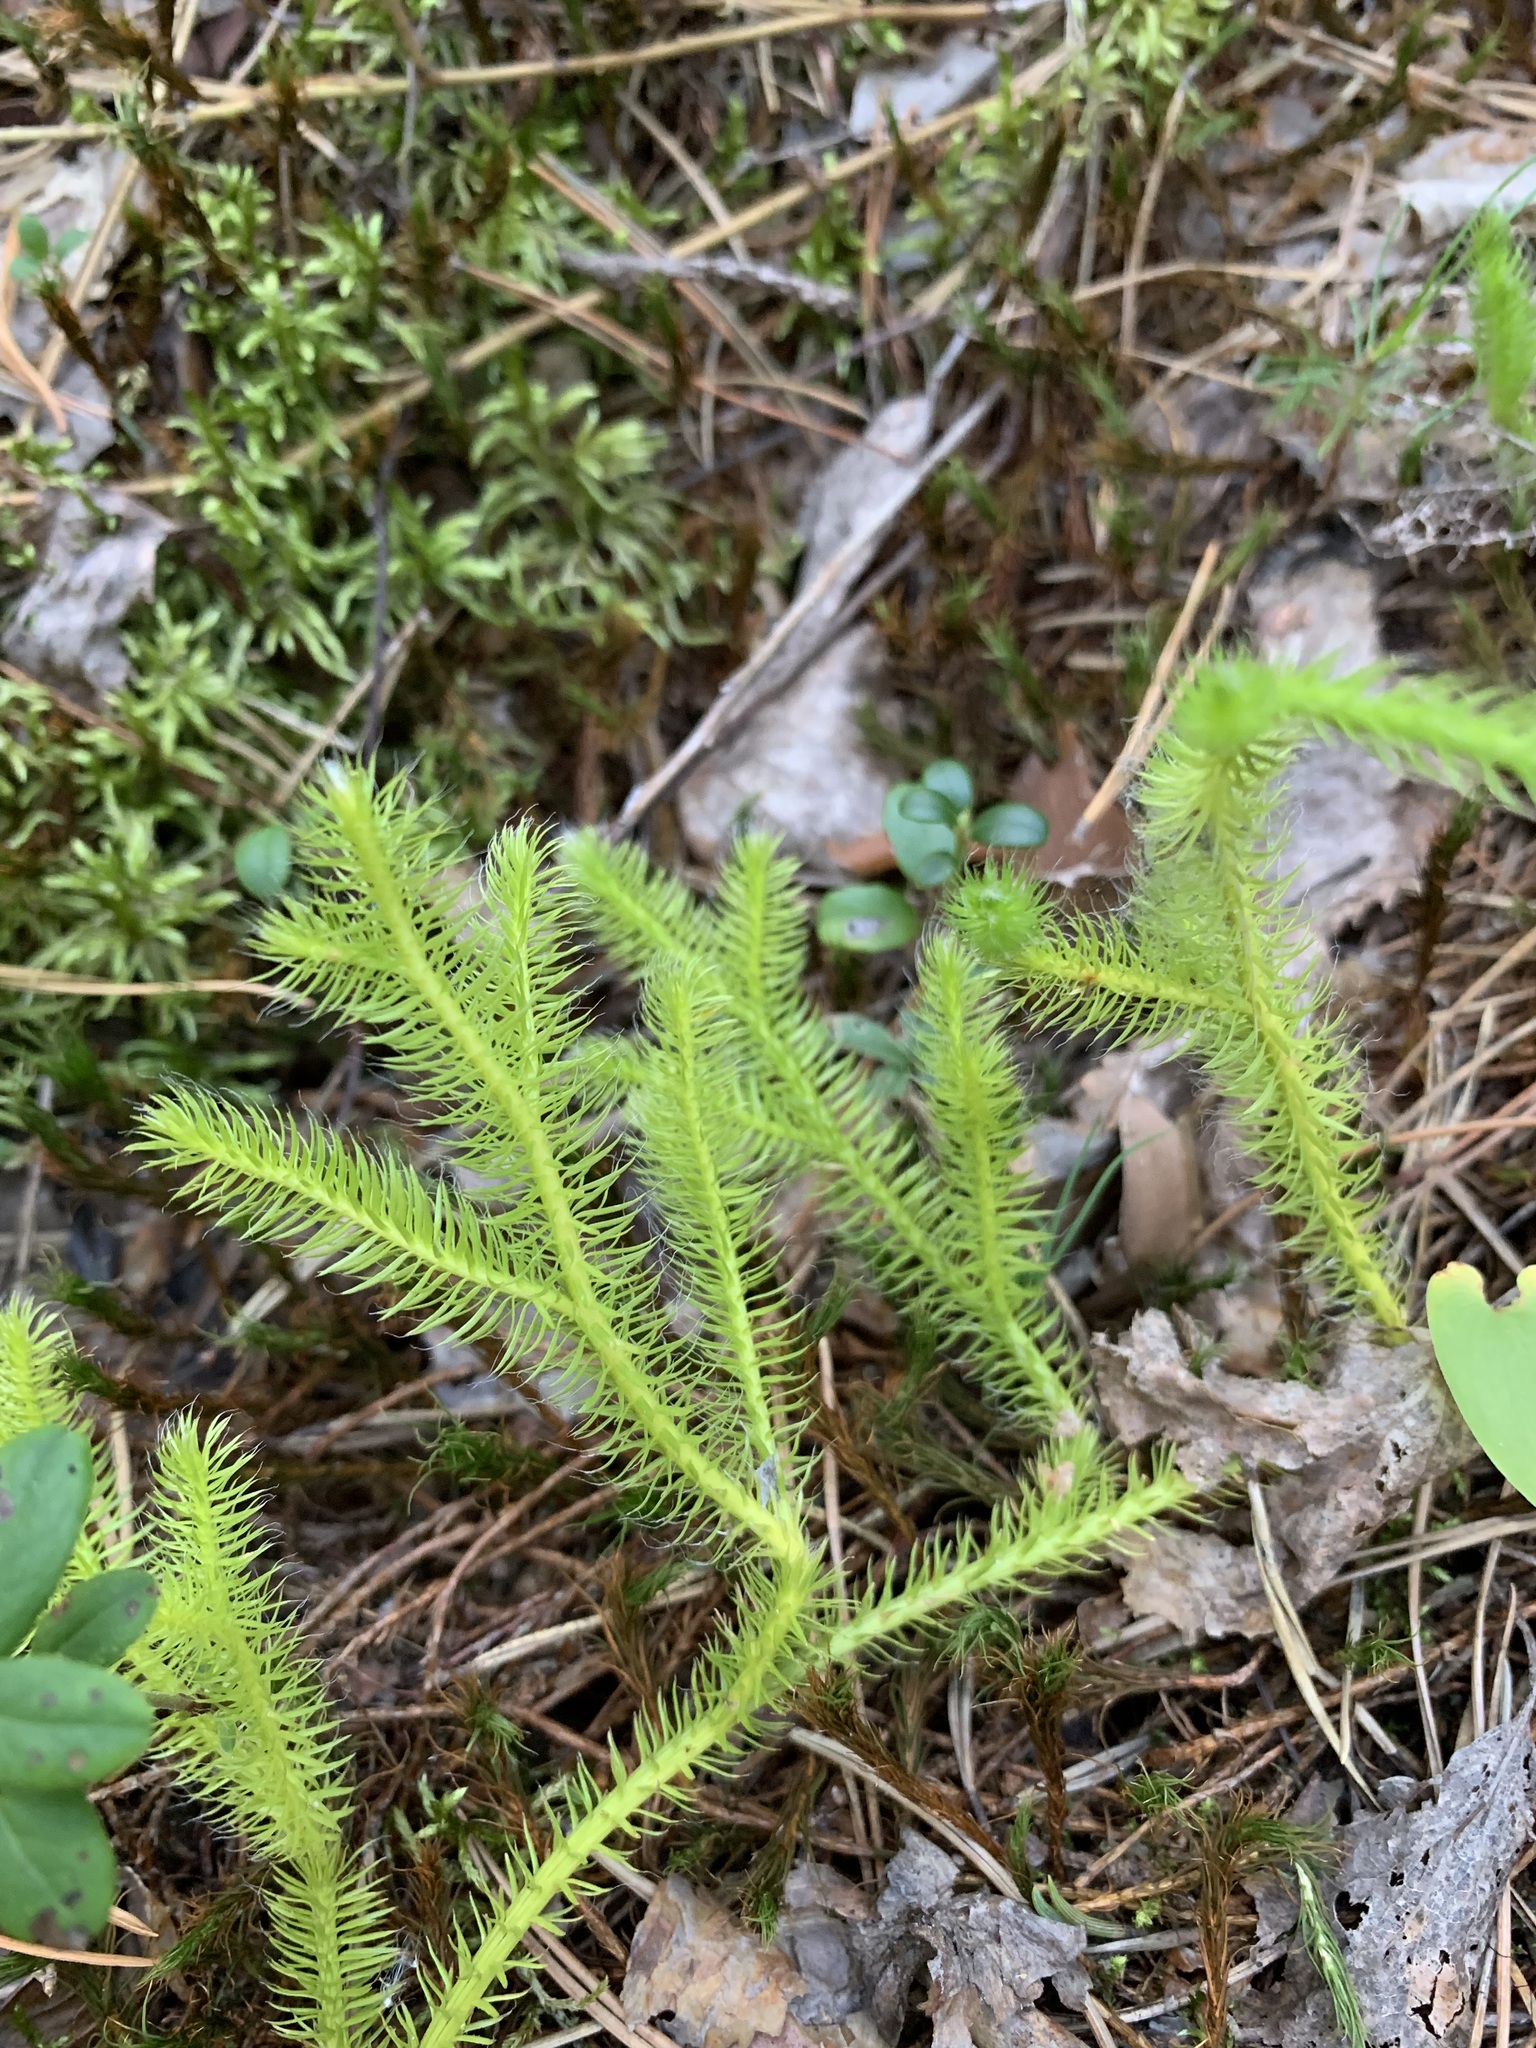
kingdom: Plantae
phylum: Tracheophyta
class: Lycopodiopsida
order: Lycopodiales
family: Lycopodiaceae
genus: Lycopodium
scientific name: Lycopodium clavatum
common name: Stag's-horn clubmoss
